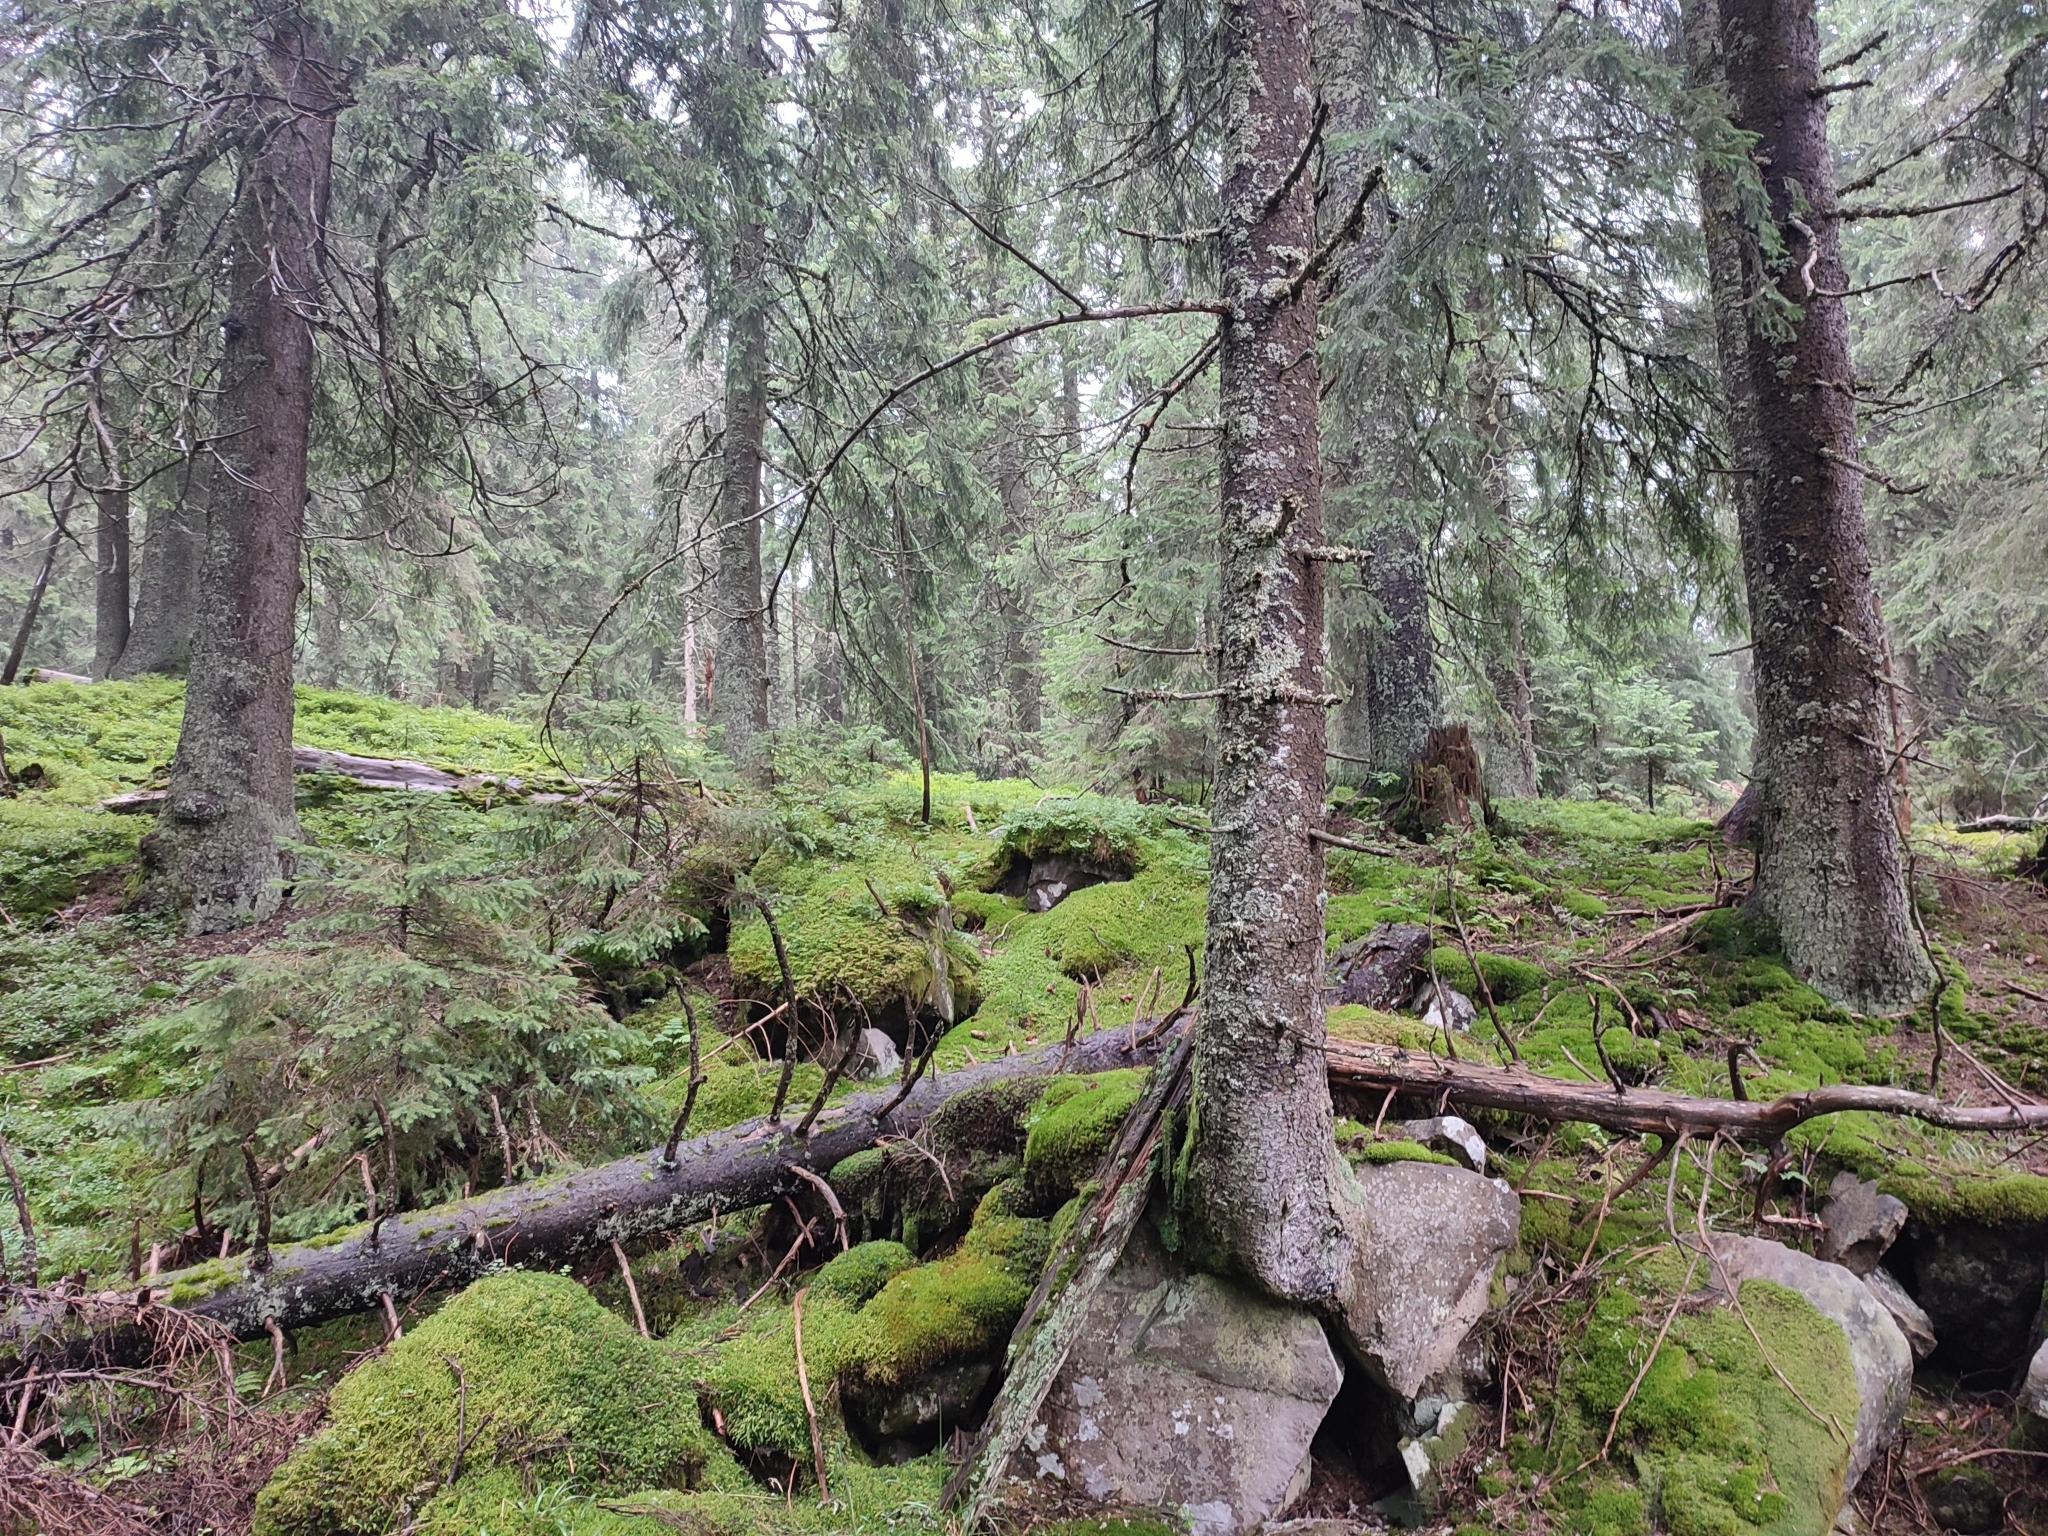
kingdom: Plantae
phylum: Tracheophyta
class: Pinopsida
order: Pinales
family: Pinaceae
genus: Picea
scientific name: Picea abies
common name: Norway spruce
